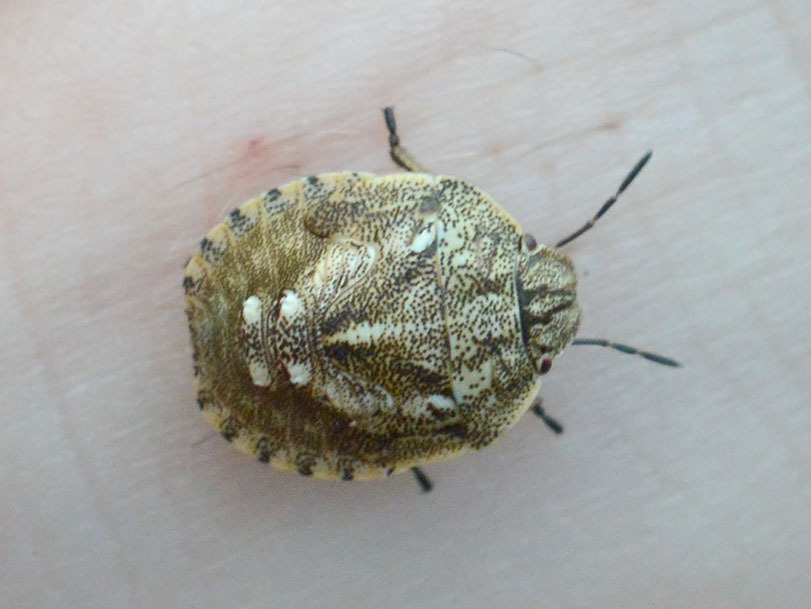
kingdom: Animalia
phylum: Arthropoda
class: Insecta
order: Hemiptera
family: Scutelleridae
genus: Eurygaster
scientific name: Eurygaster maura
